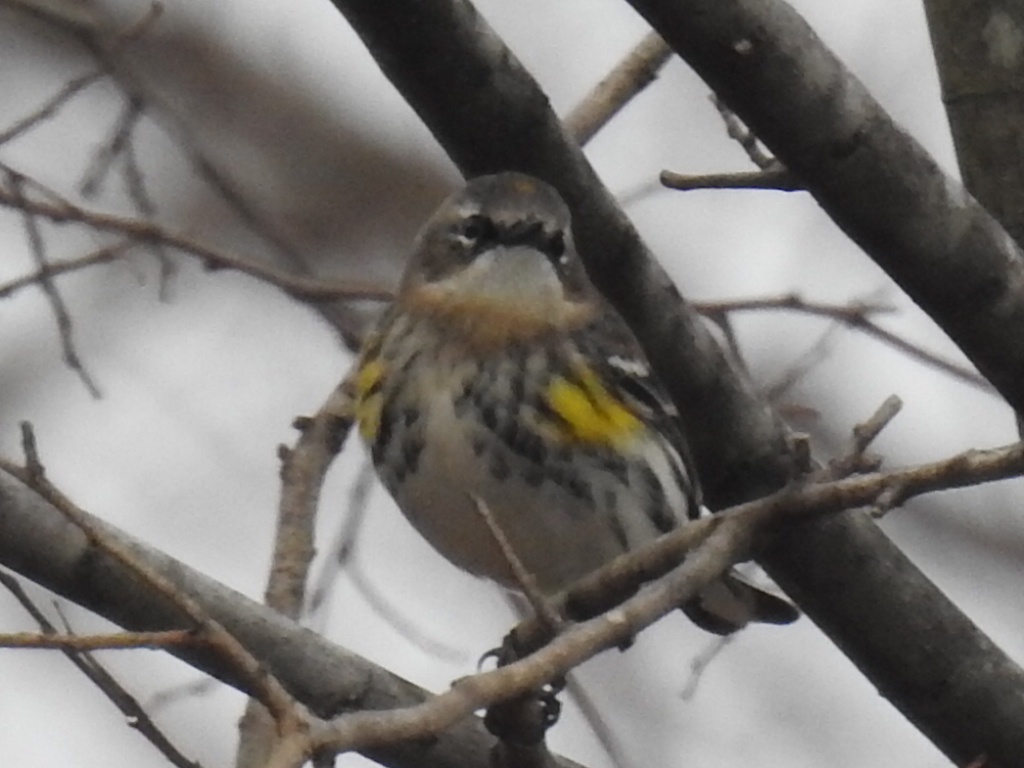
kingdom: Animalia
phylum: Chordata
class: Aves
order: Passeriformes
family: Parulidae
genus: Setophaga
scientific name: Setophaga coronata
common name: Myrtle warbler
